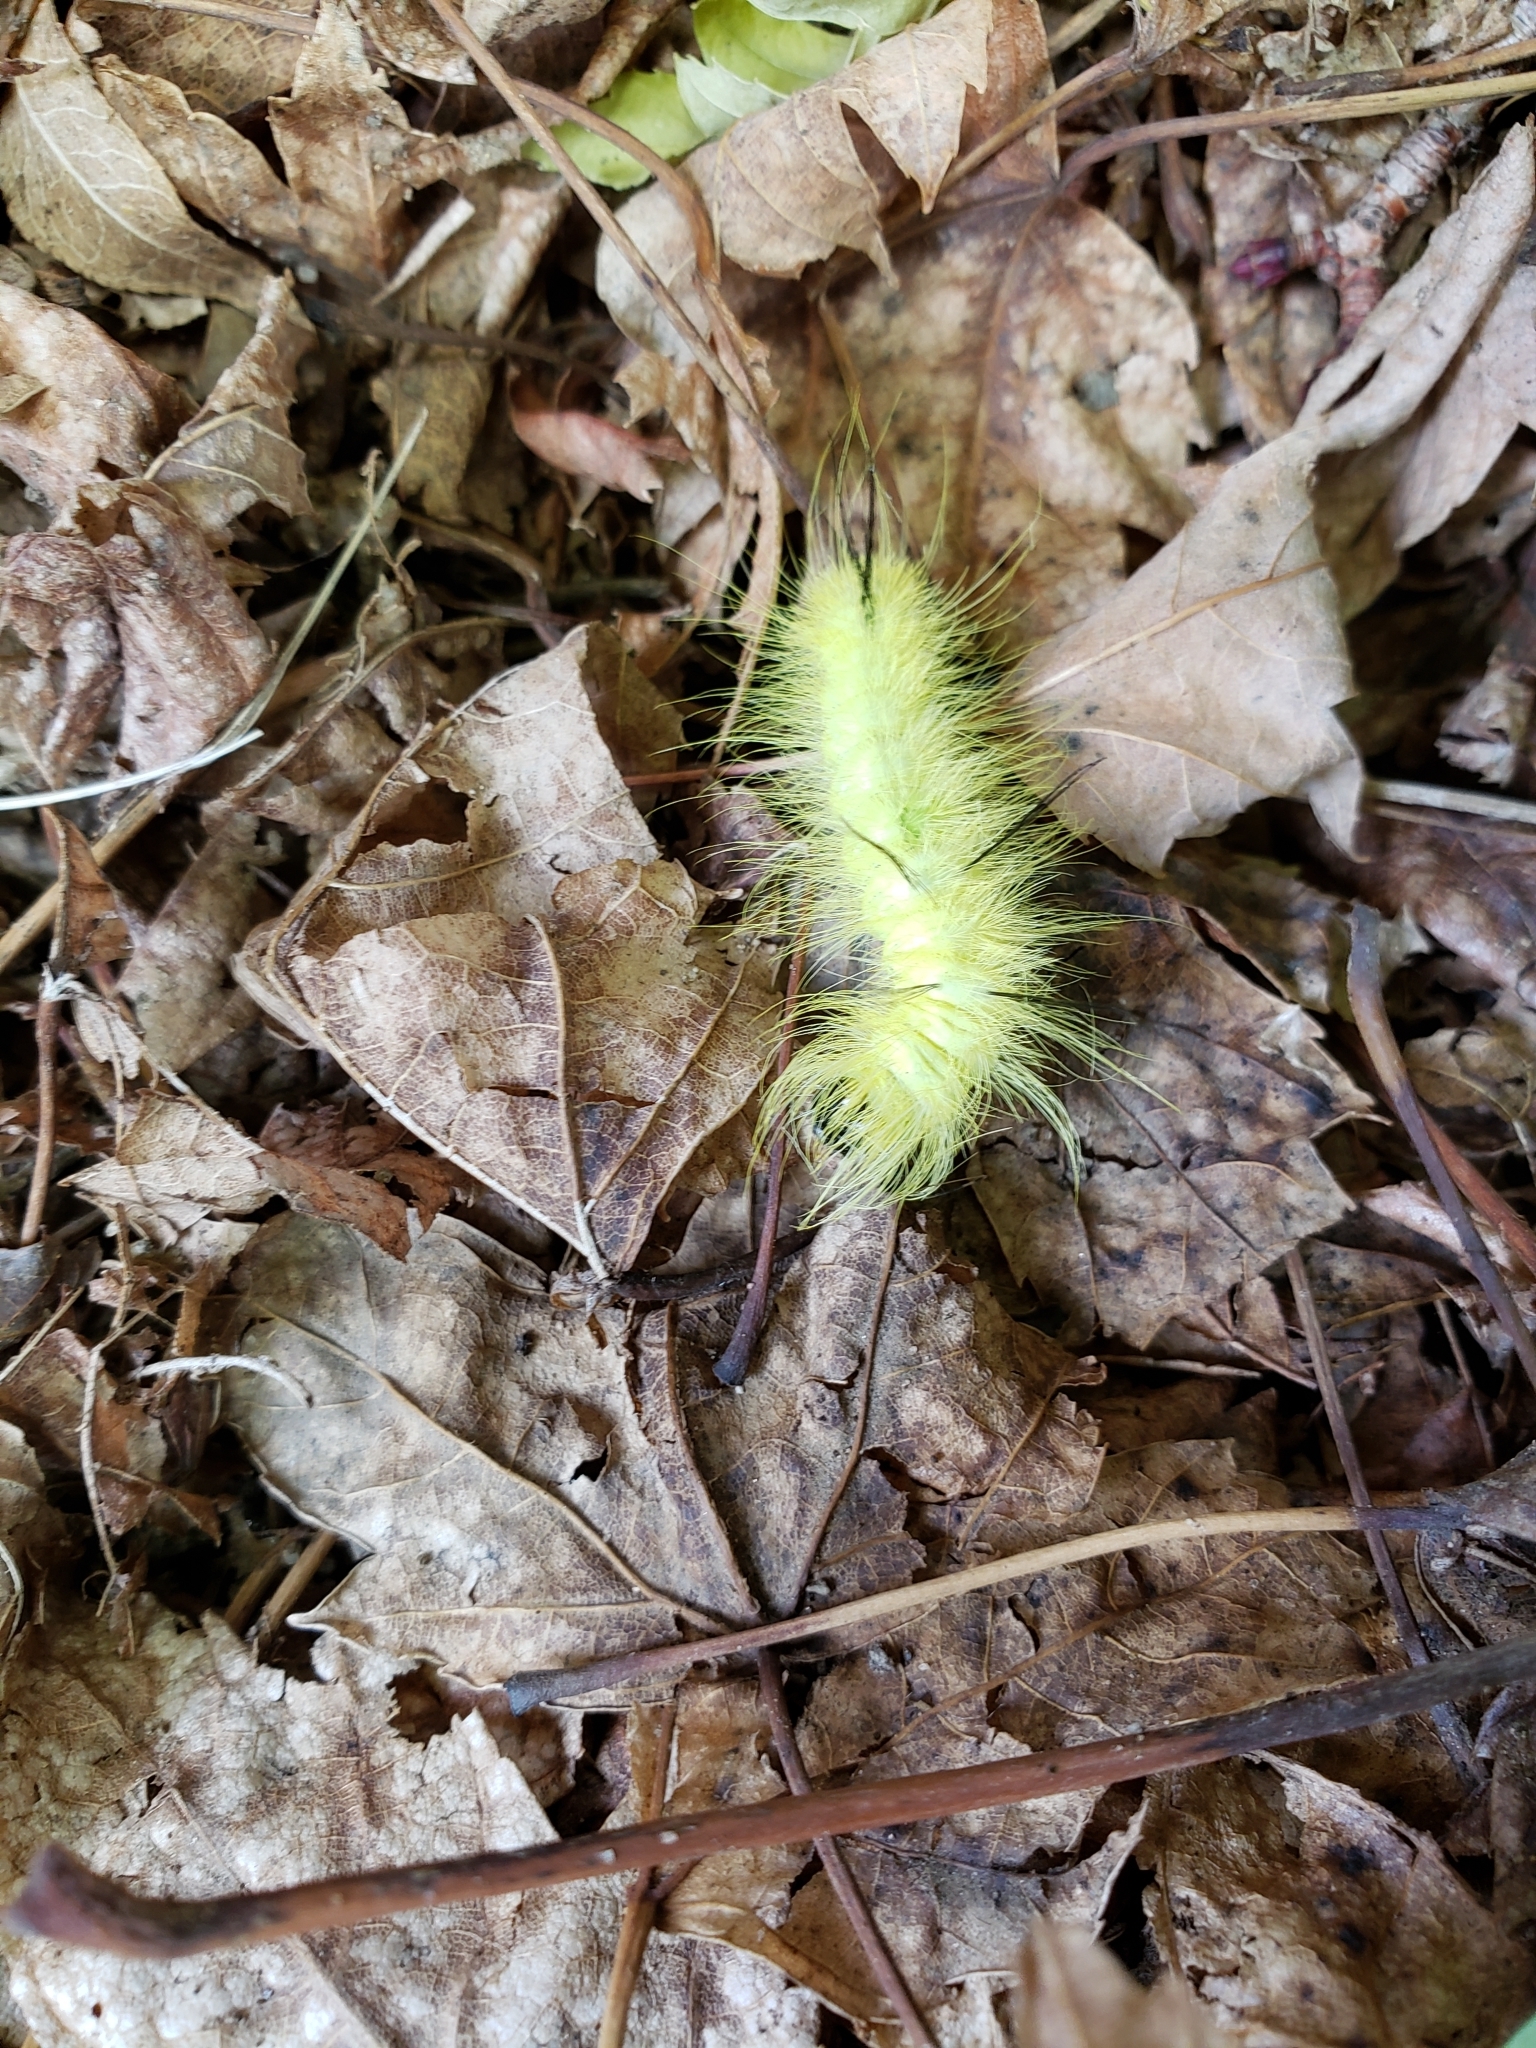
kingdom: Animalia
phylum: Arthropoda
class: Insecta
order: Lepidoptera
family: Noctuidae
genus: Acronicta
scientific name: Acronicta americana
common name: American dagger
